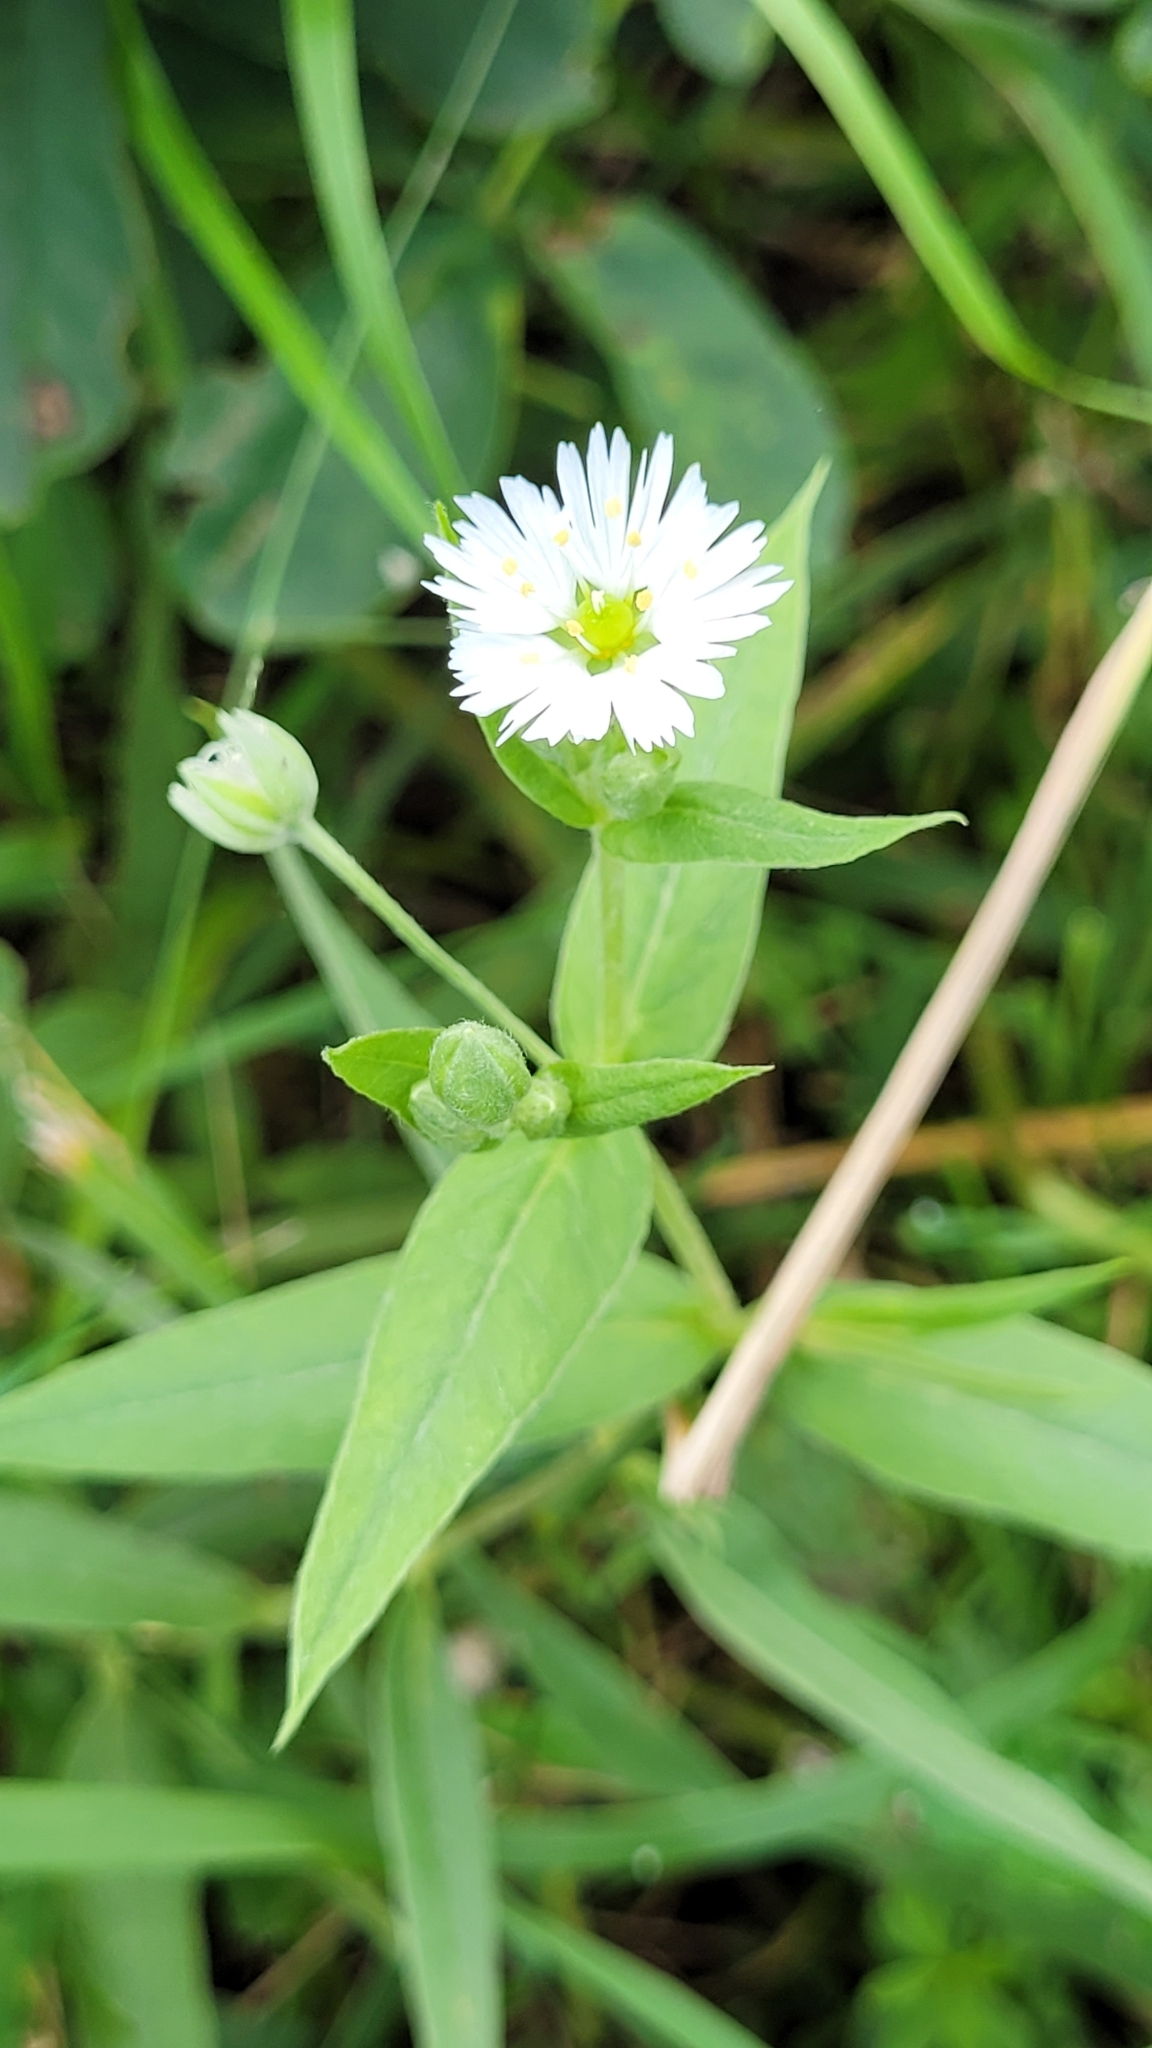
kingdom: Plantae
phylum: Tracheophyta
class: Magnoliopsida
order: Caryophyllales
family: Caryophyllaceae
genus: Stellaria
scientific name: Stellaria radians
